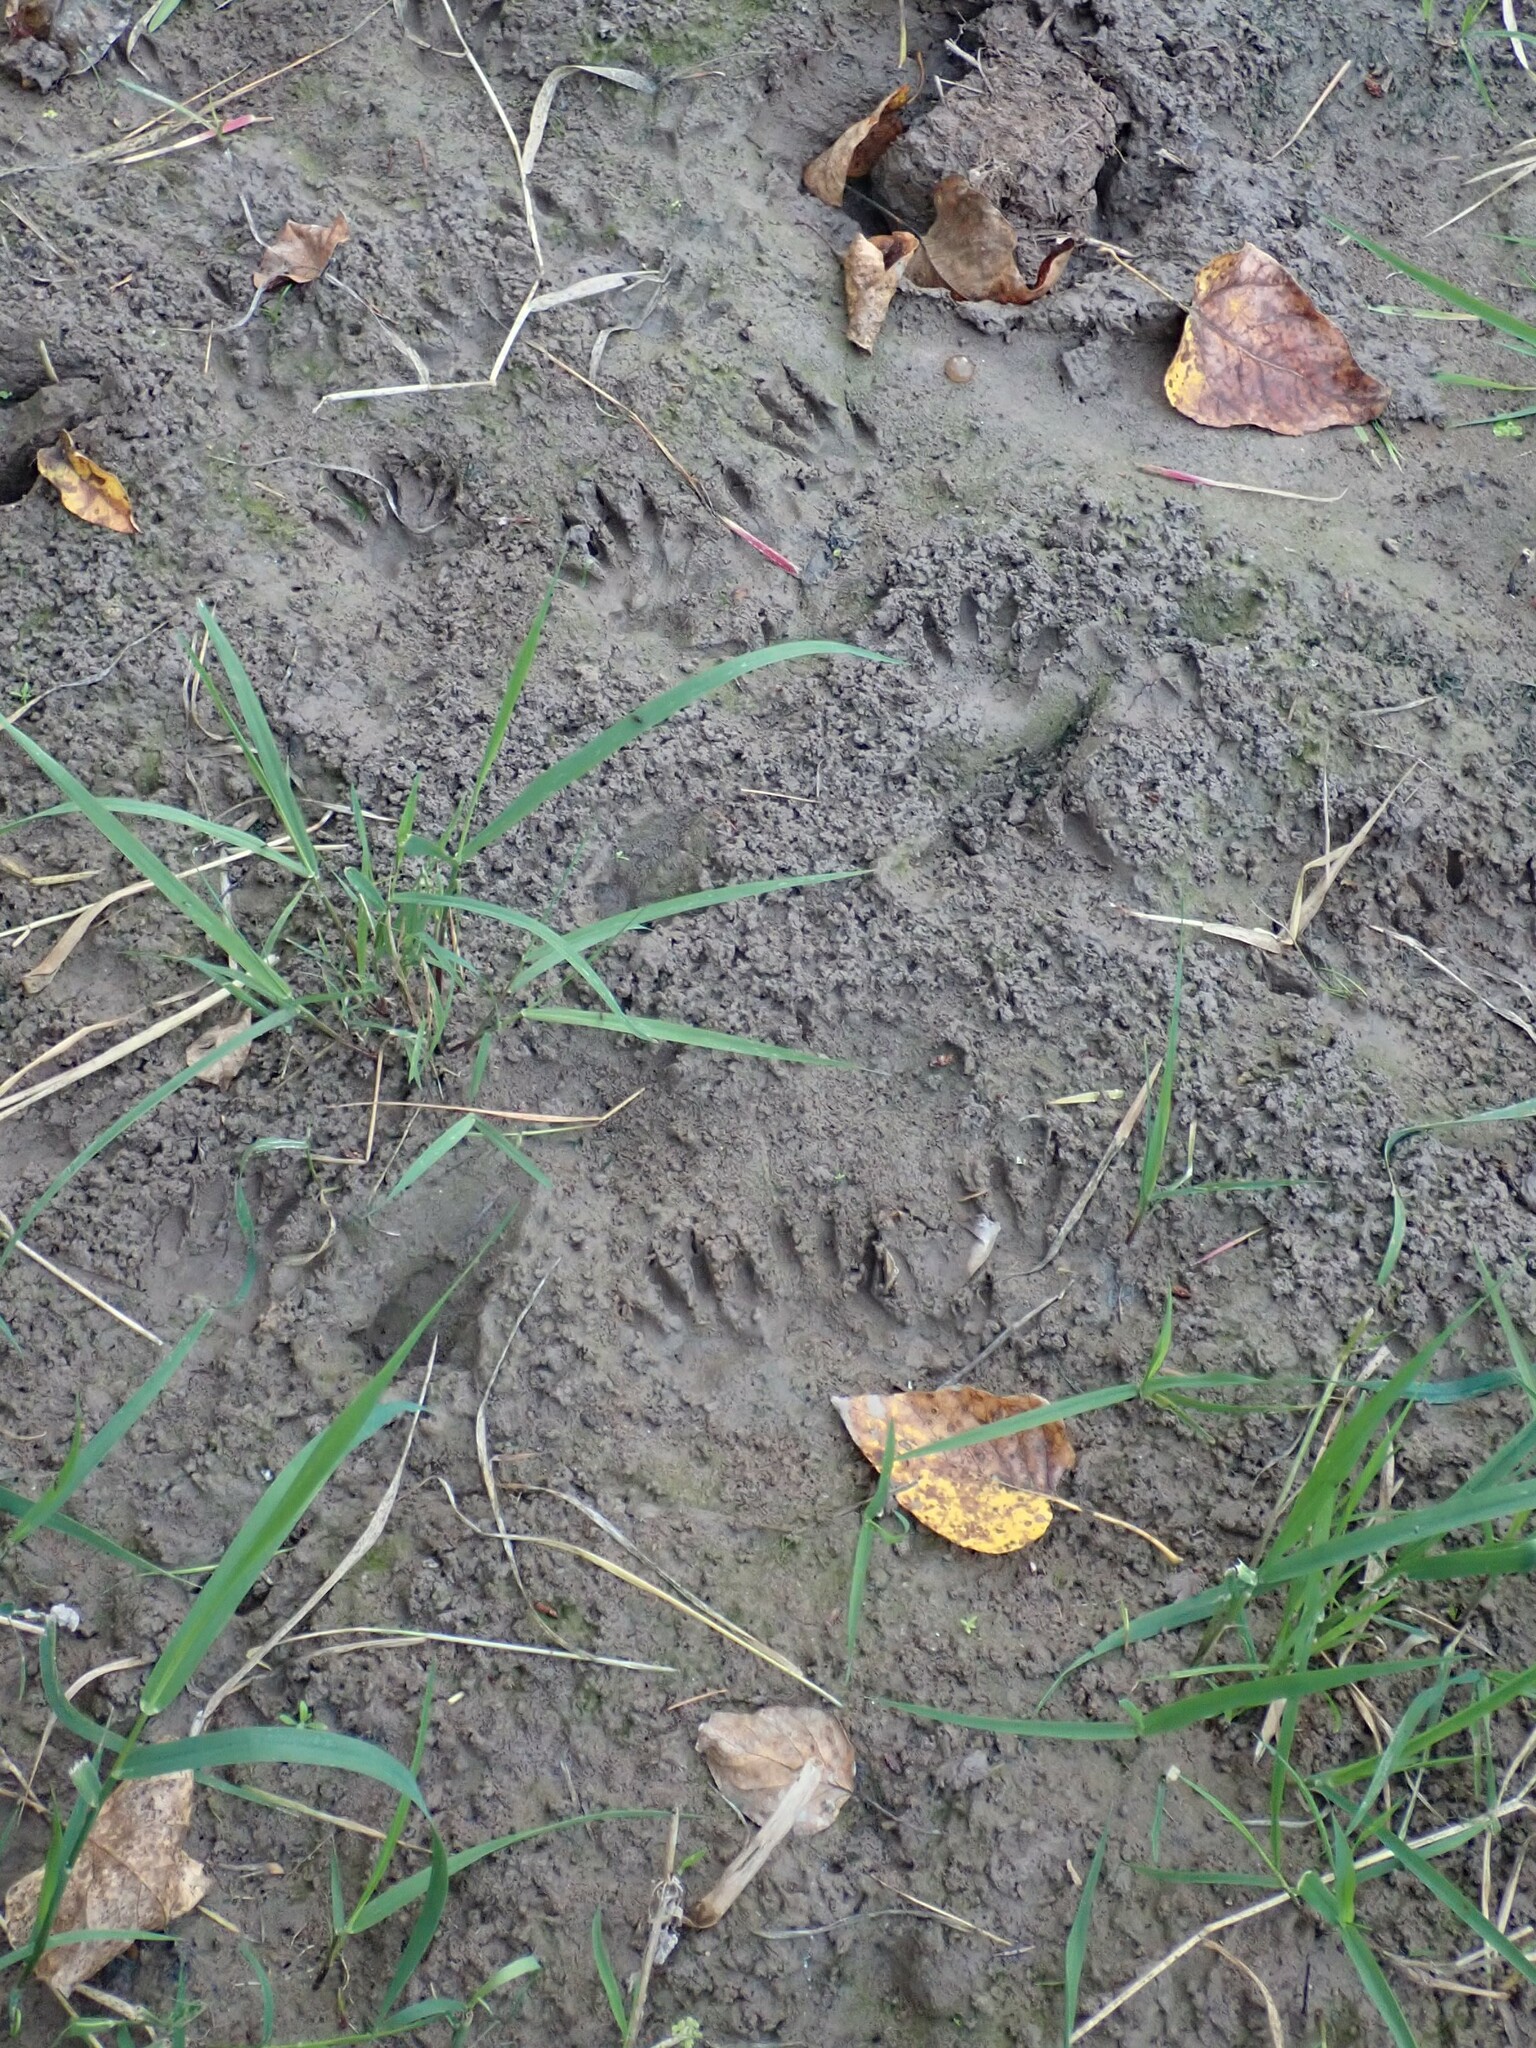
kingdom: Animalia
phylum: Chordata
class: Mammalia
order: Carnivora
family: Procyonidae
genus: Procyon
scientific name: Procyon lotor
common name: Raccoon
